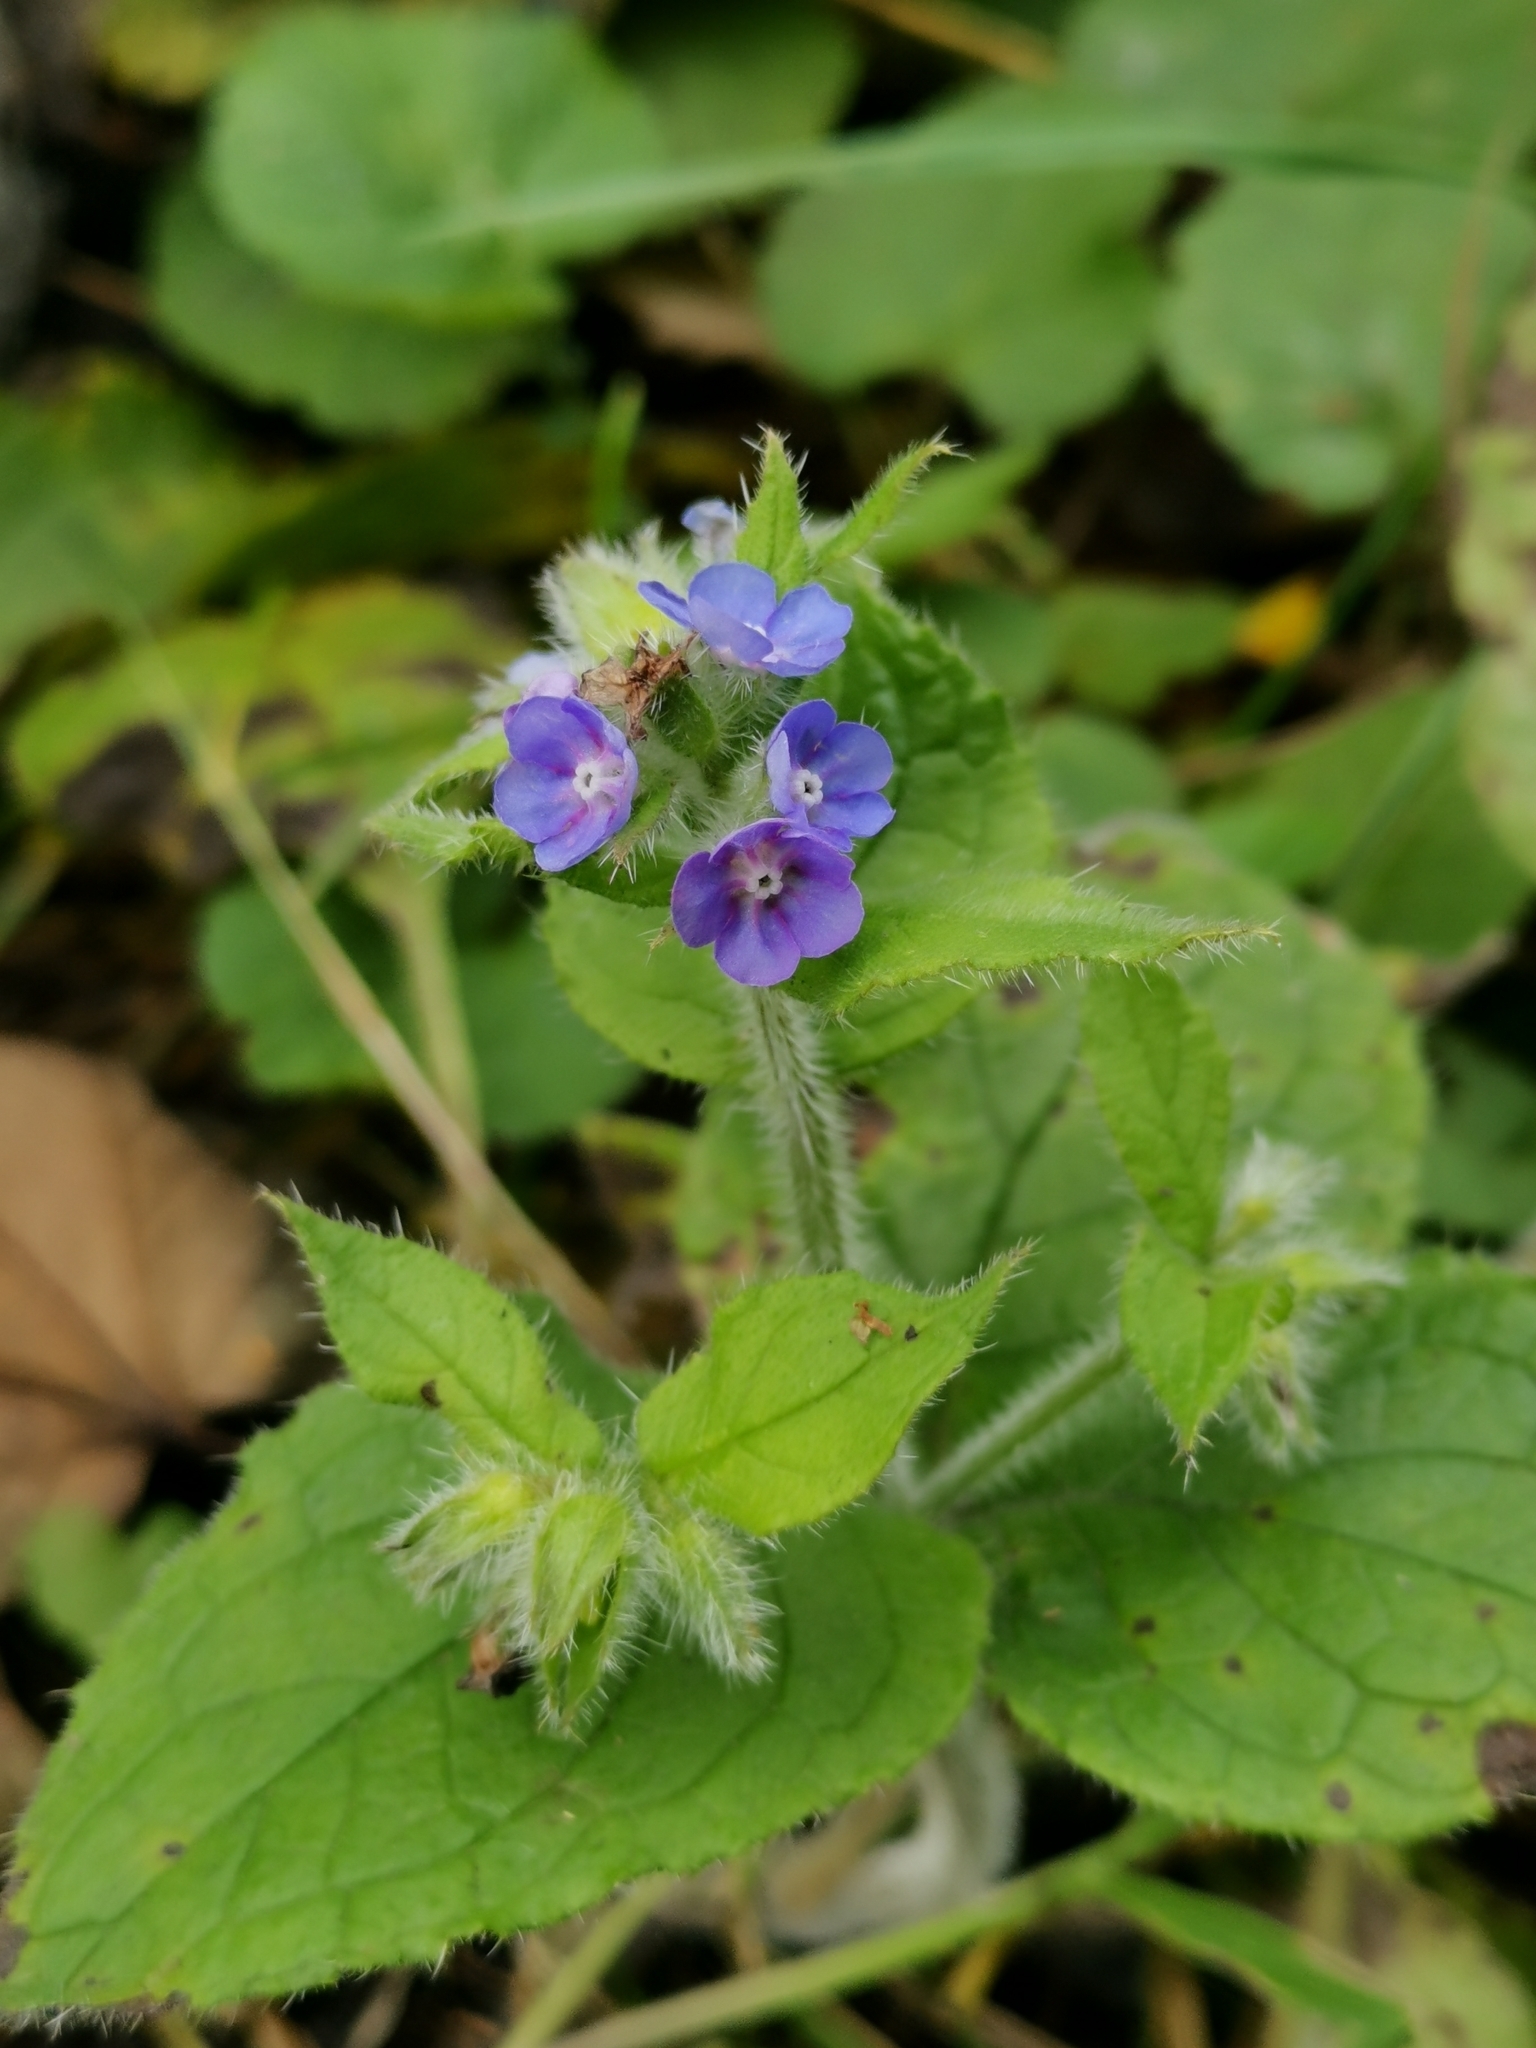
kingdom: Plantae
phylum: Tracheophyta
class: Magnoliopsida
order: Boraginales
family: Boraginaceae
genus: Pentaglottis
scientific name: Pentaglottis sempervirens
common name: Green alkanet
